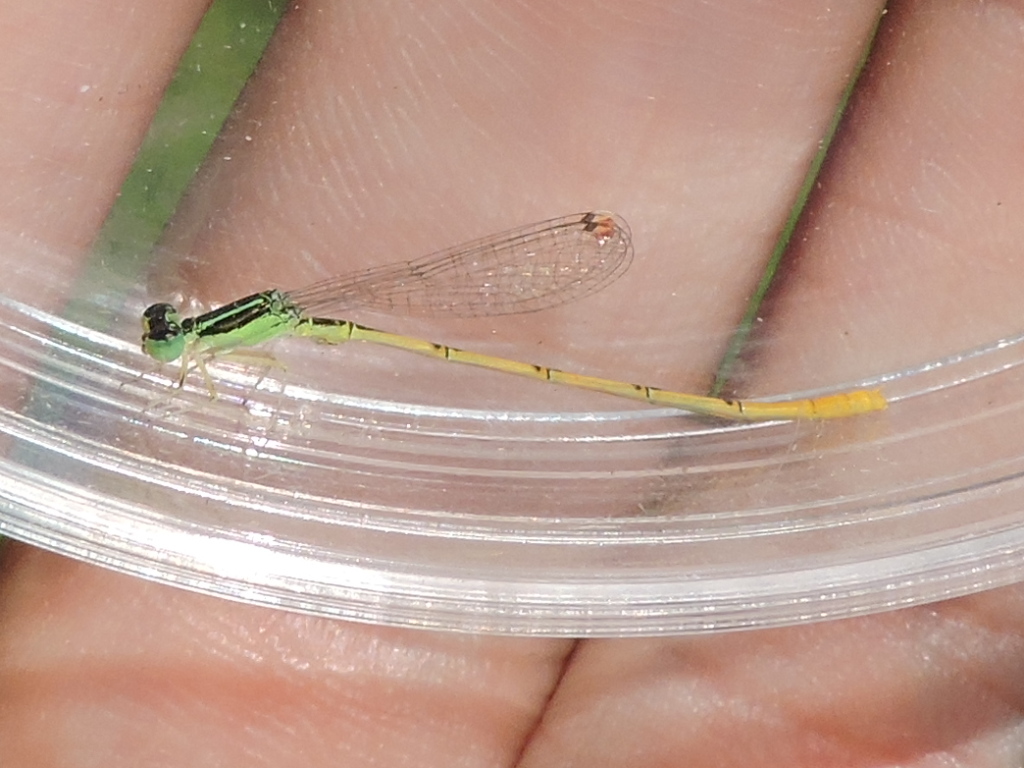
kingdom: Animalia
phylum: Arthropoda
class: Insecta
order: Odonata
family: Coenagrionidae
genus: Ischnura
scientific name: Ischnura hastata
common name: Citrine forktail
